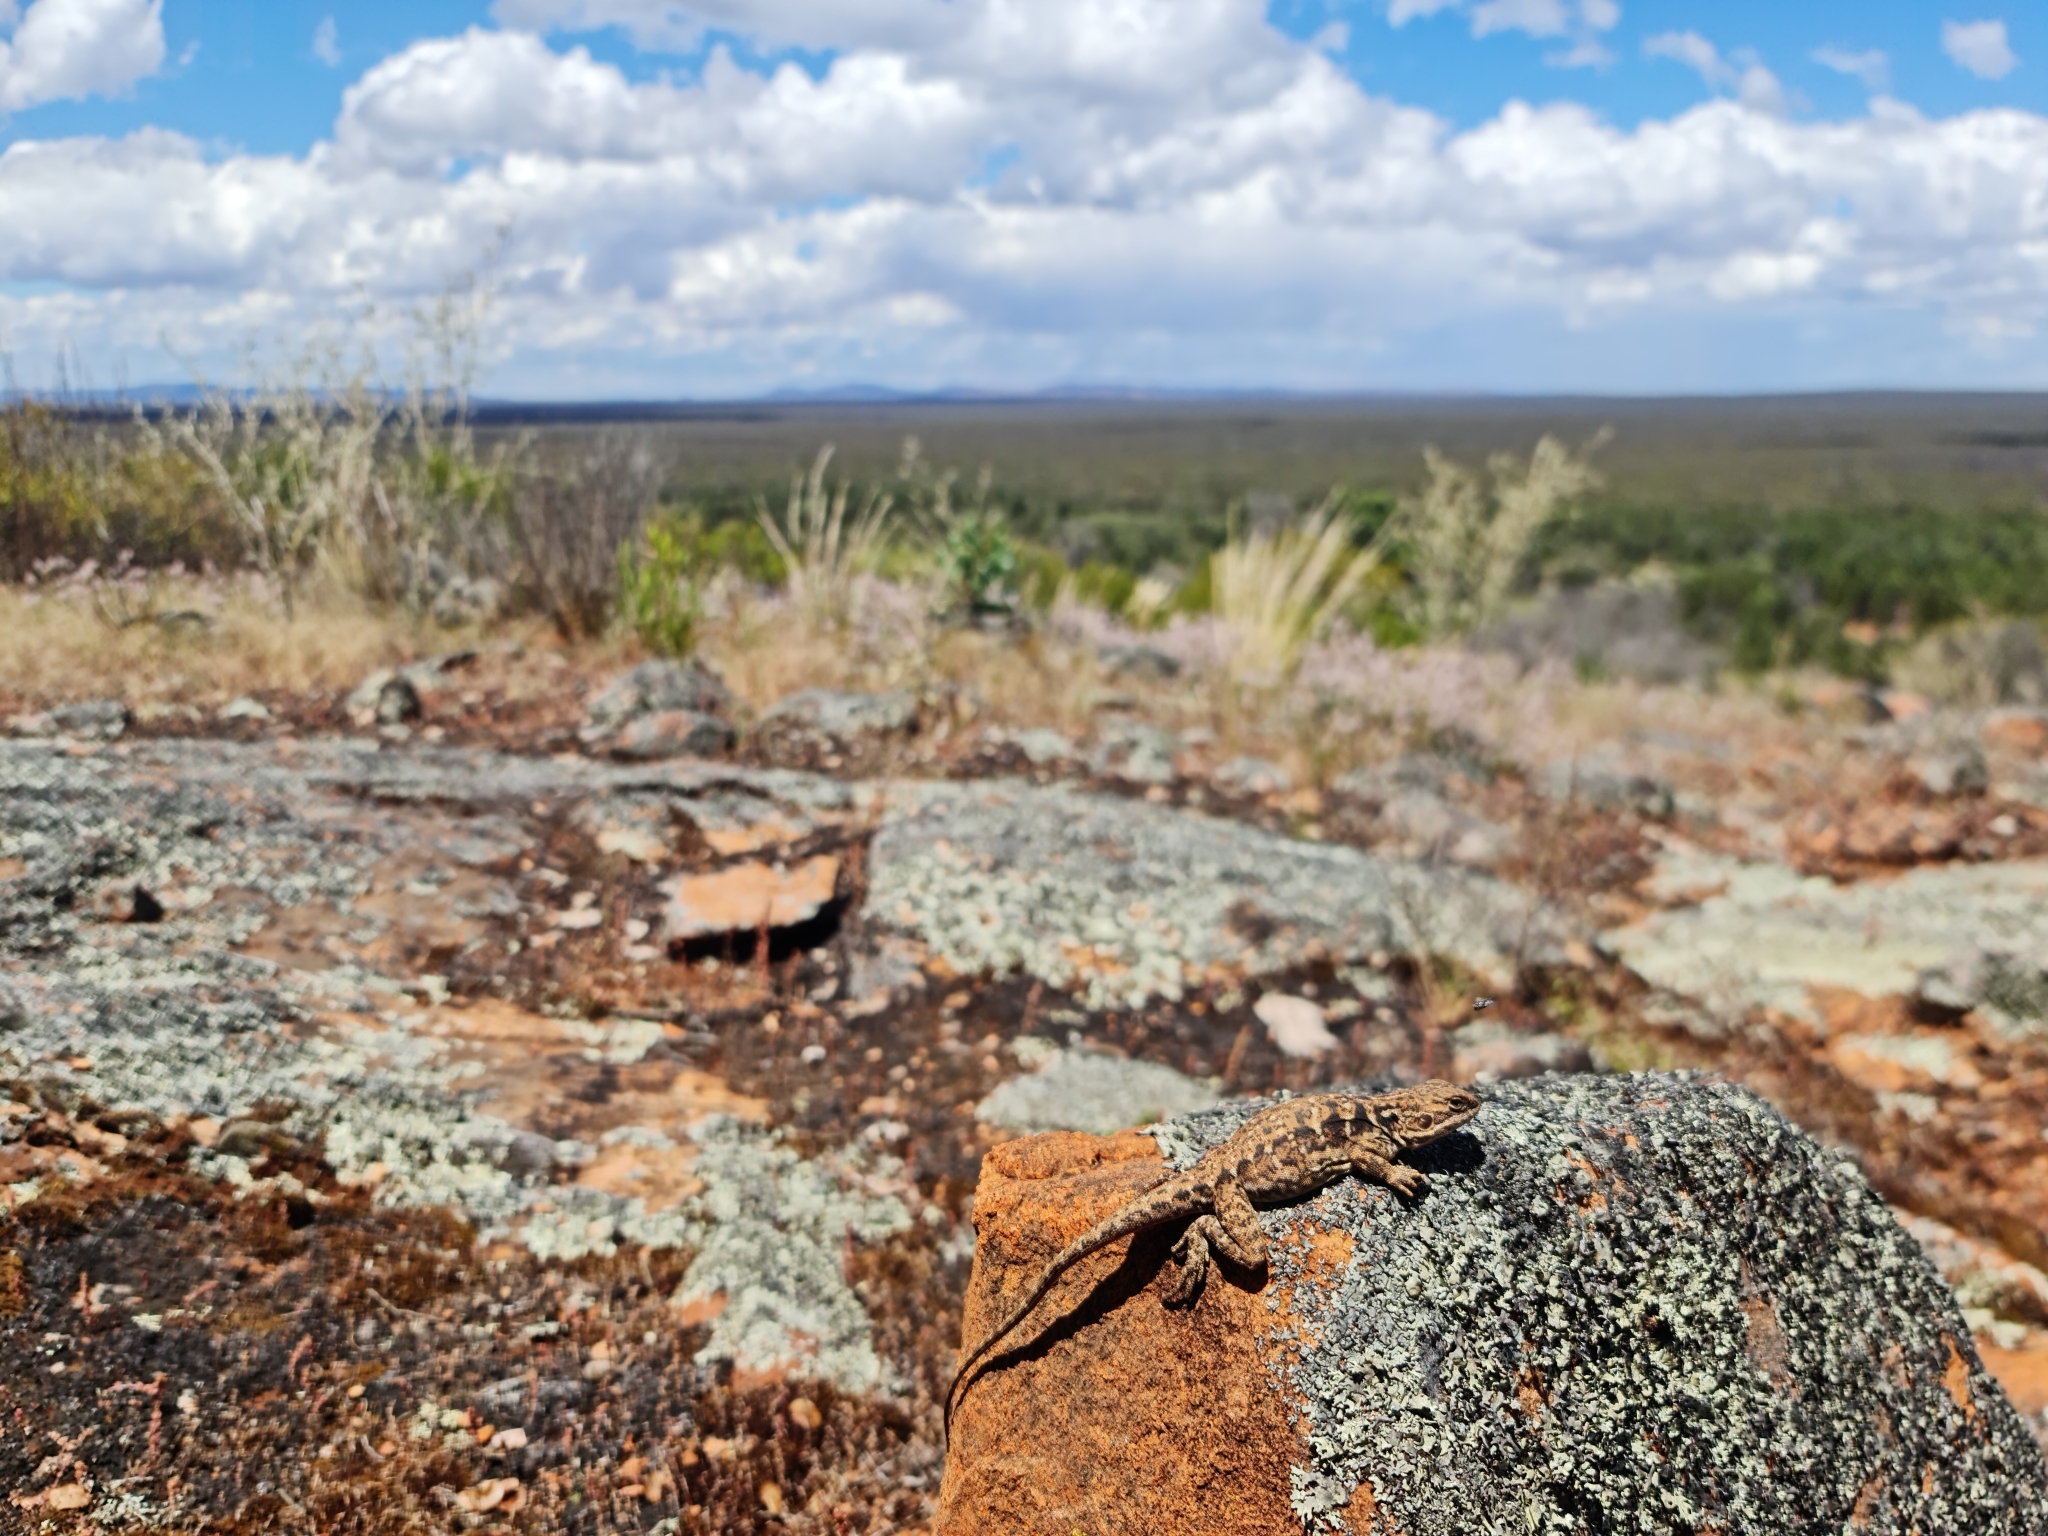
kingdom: Animalia
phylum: Chordata
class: Squamata
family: Agamidae
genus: Ctenophorus
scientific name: Ctenophorus fionni
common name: Peninsula crevis-dragon
